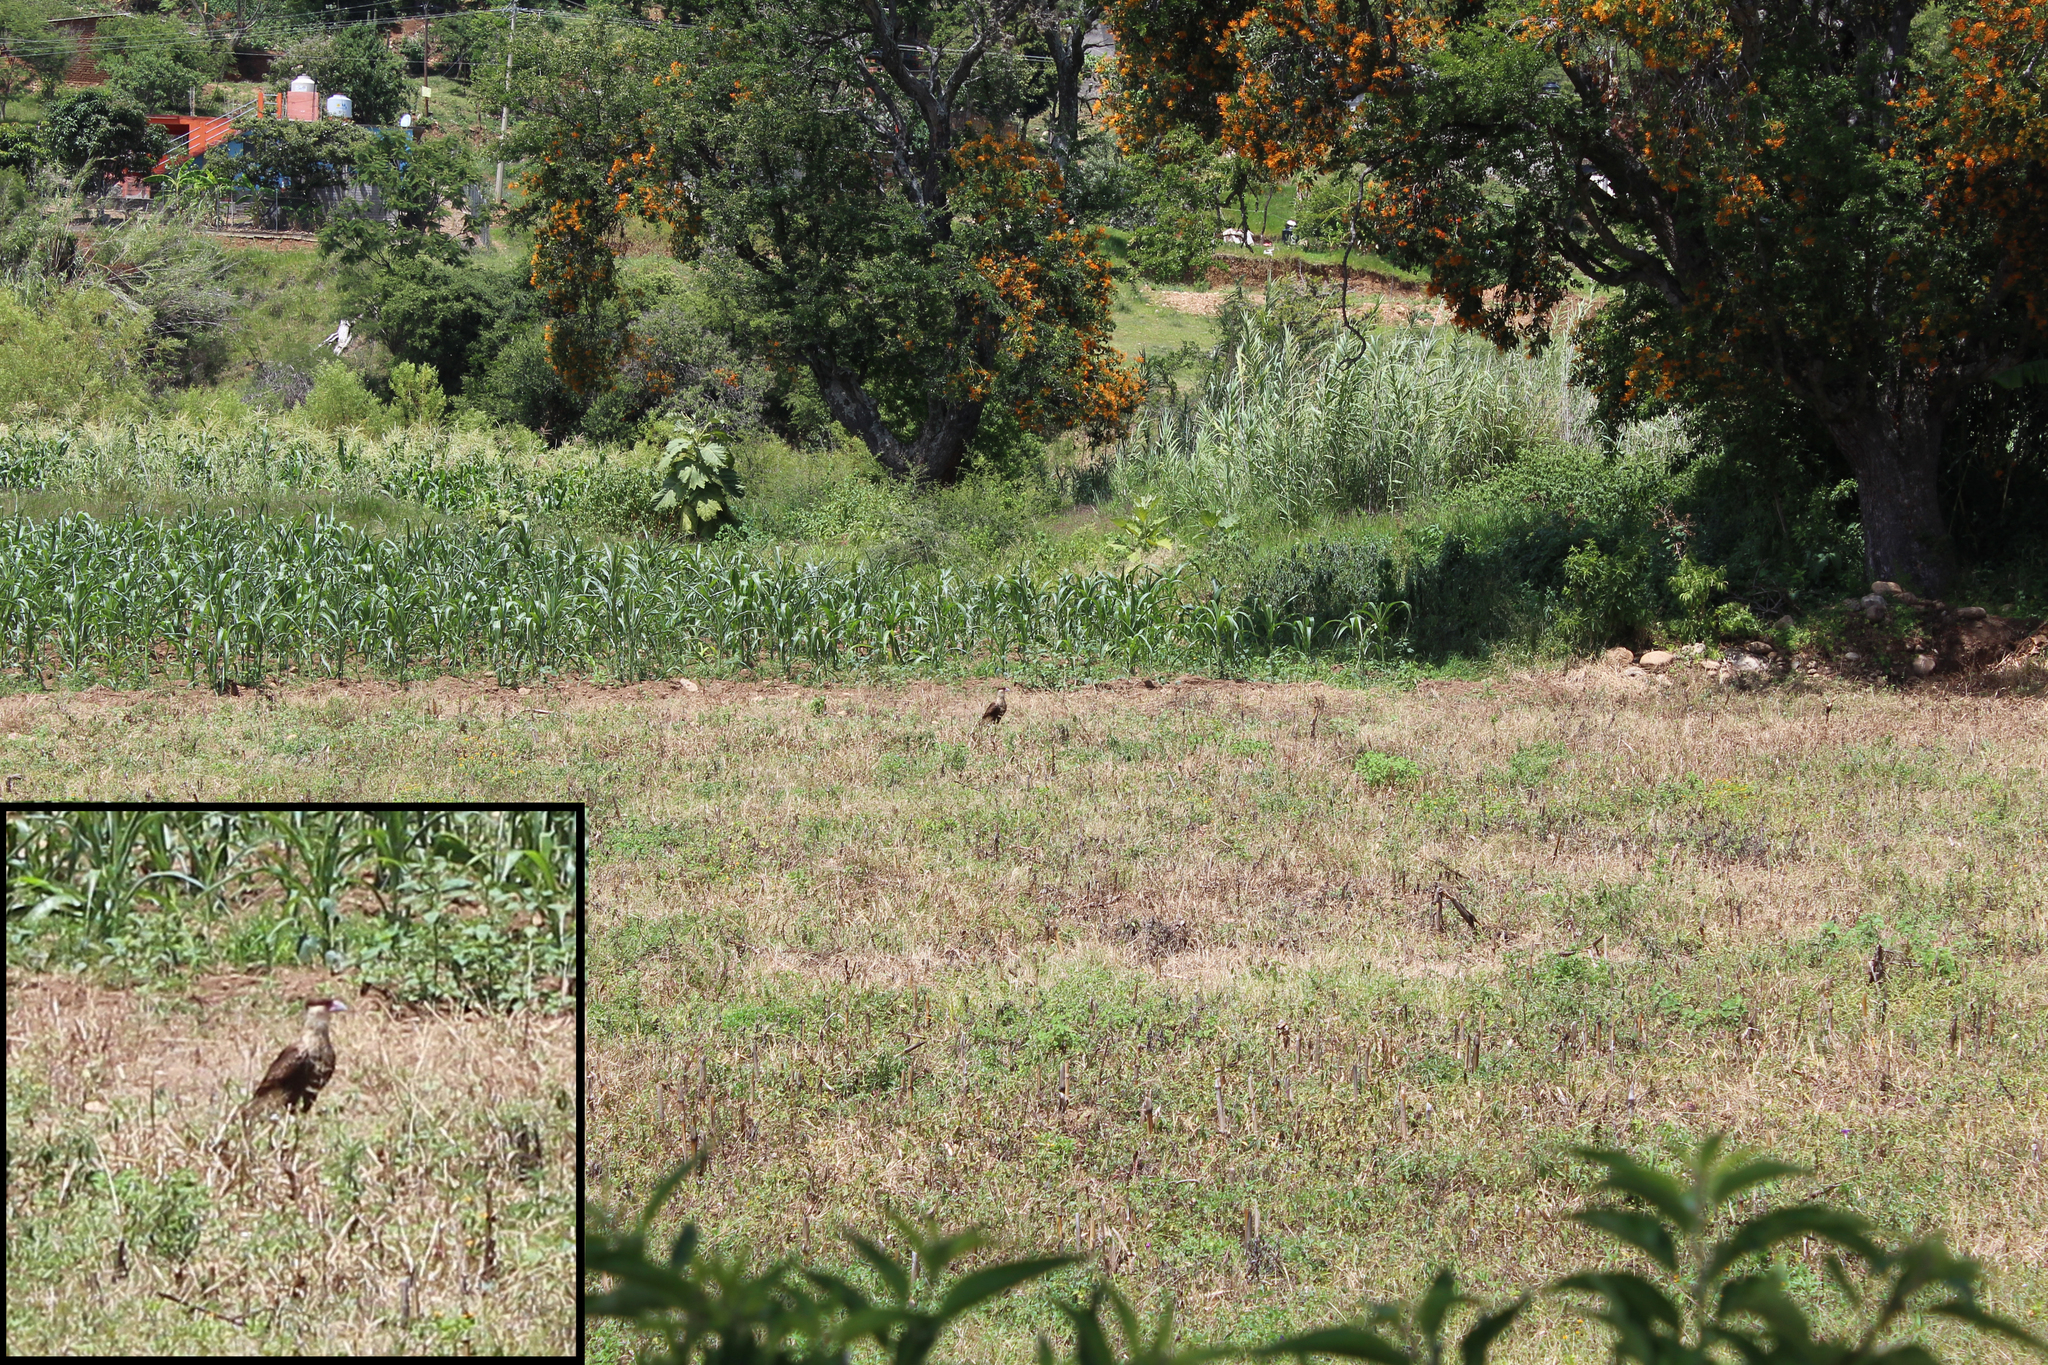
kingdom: Animalia
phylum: Chordata
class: Aves
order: Falconiformes
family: Falconidae
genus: Caracara
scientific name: Caracara plancus
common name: Southern caracara
